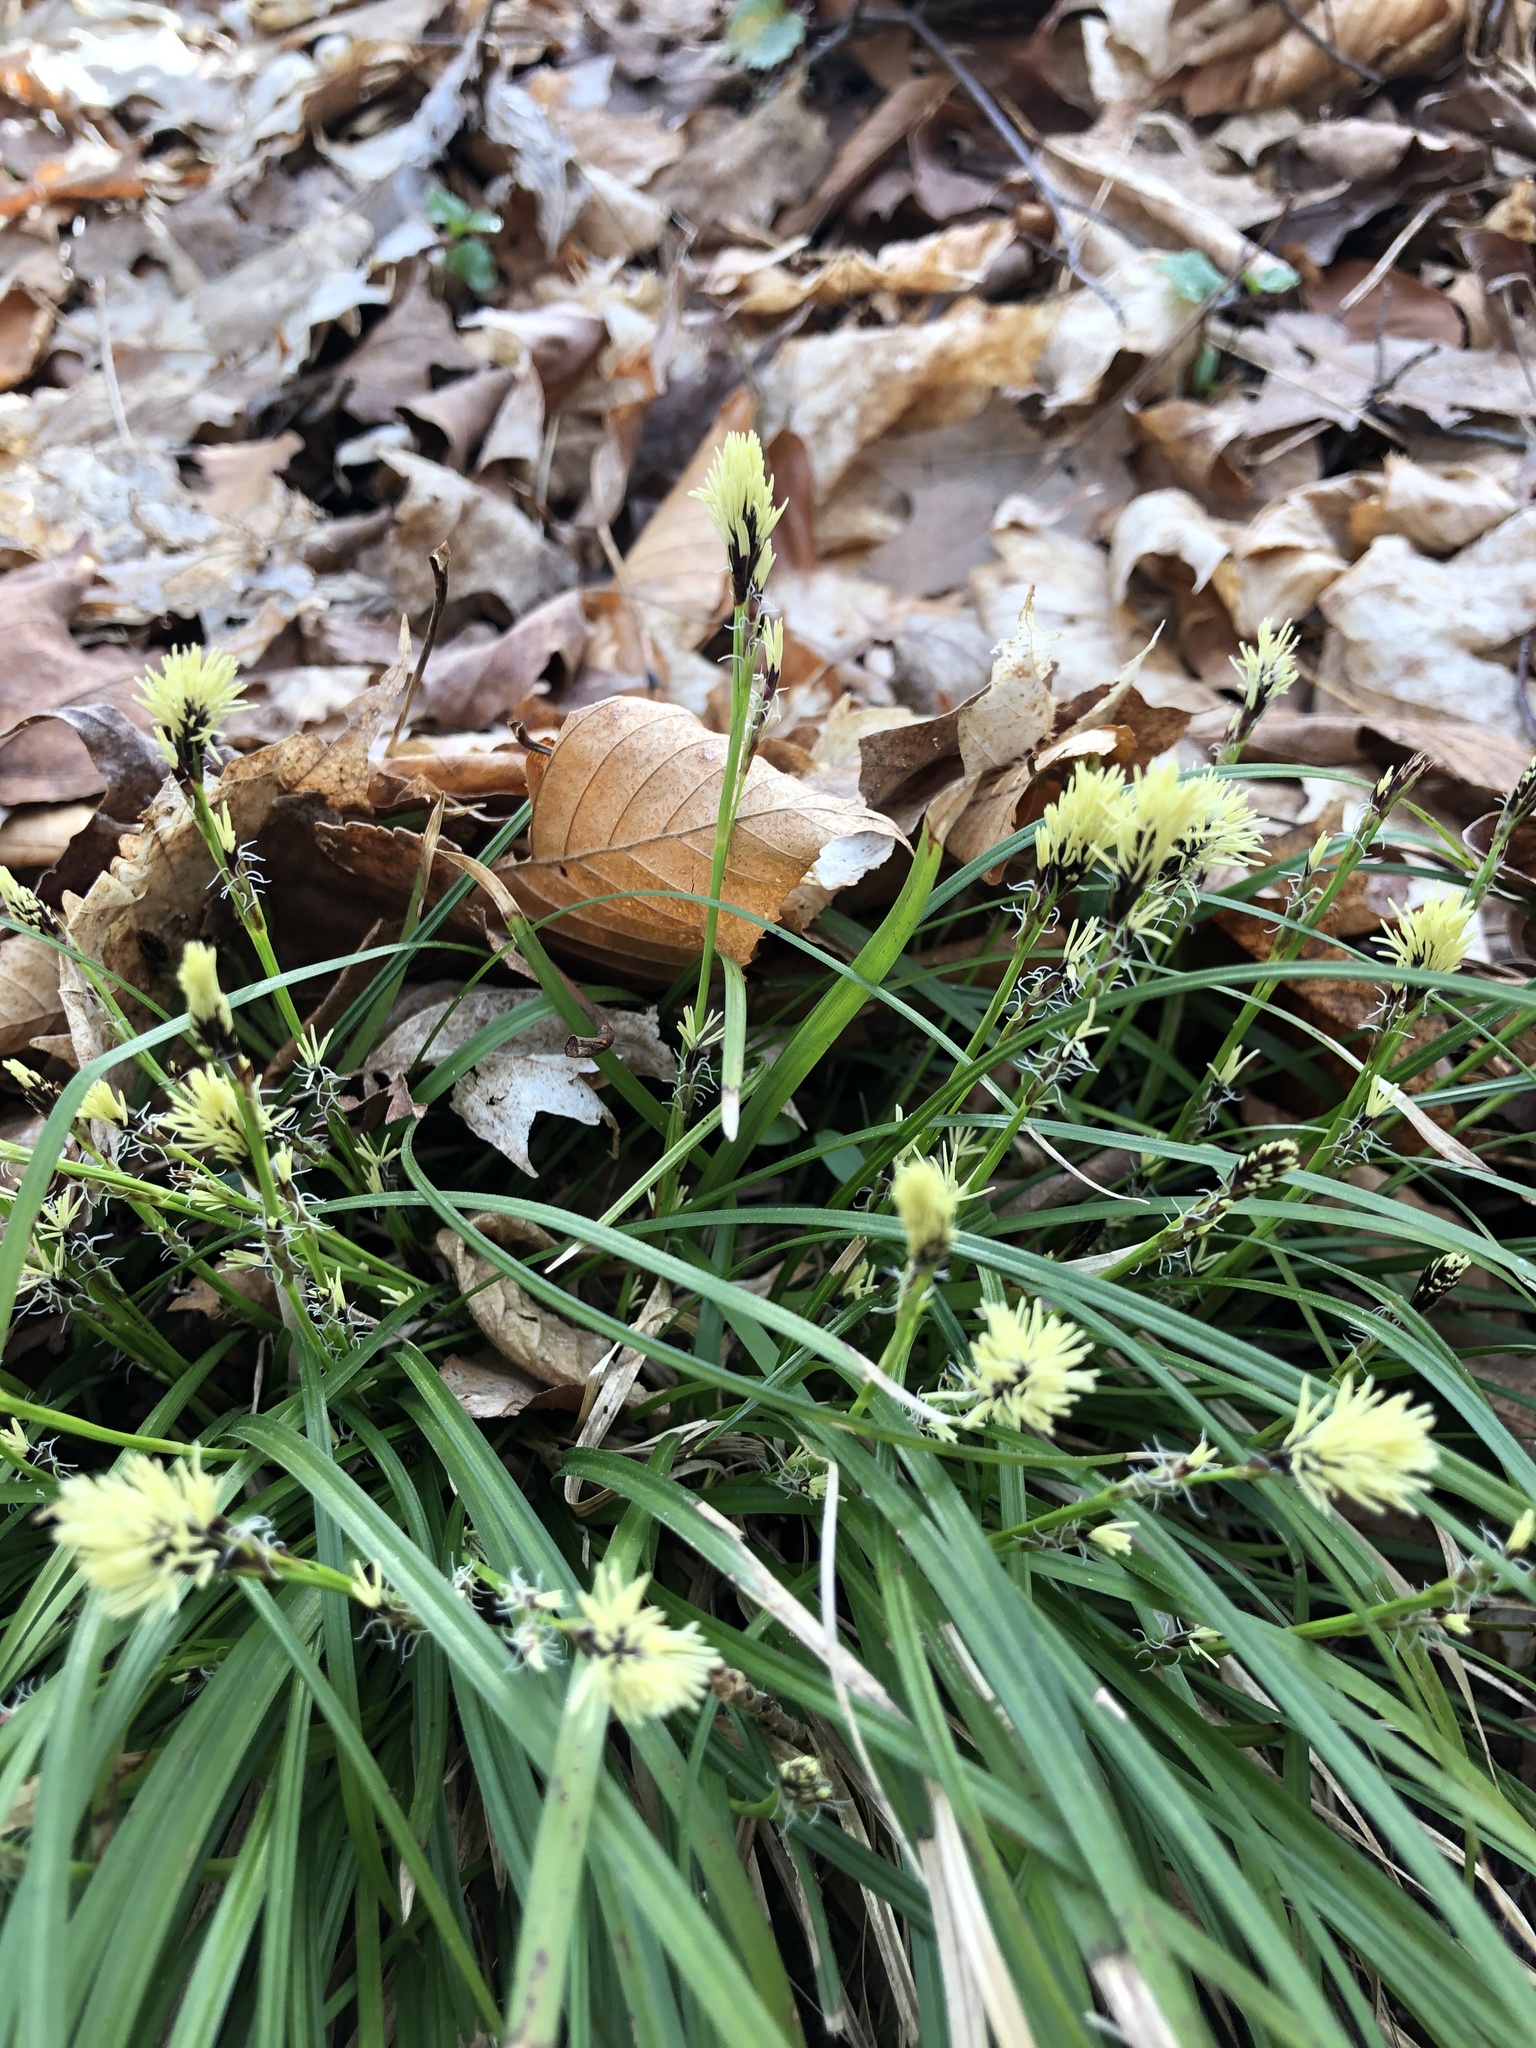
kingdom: Plantae
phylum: Tracheophyta
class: Liliopsida
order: Poales
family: Cyperaceae
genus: Carex
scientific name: Carex pedunculata
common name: Pedunculate sedge
